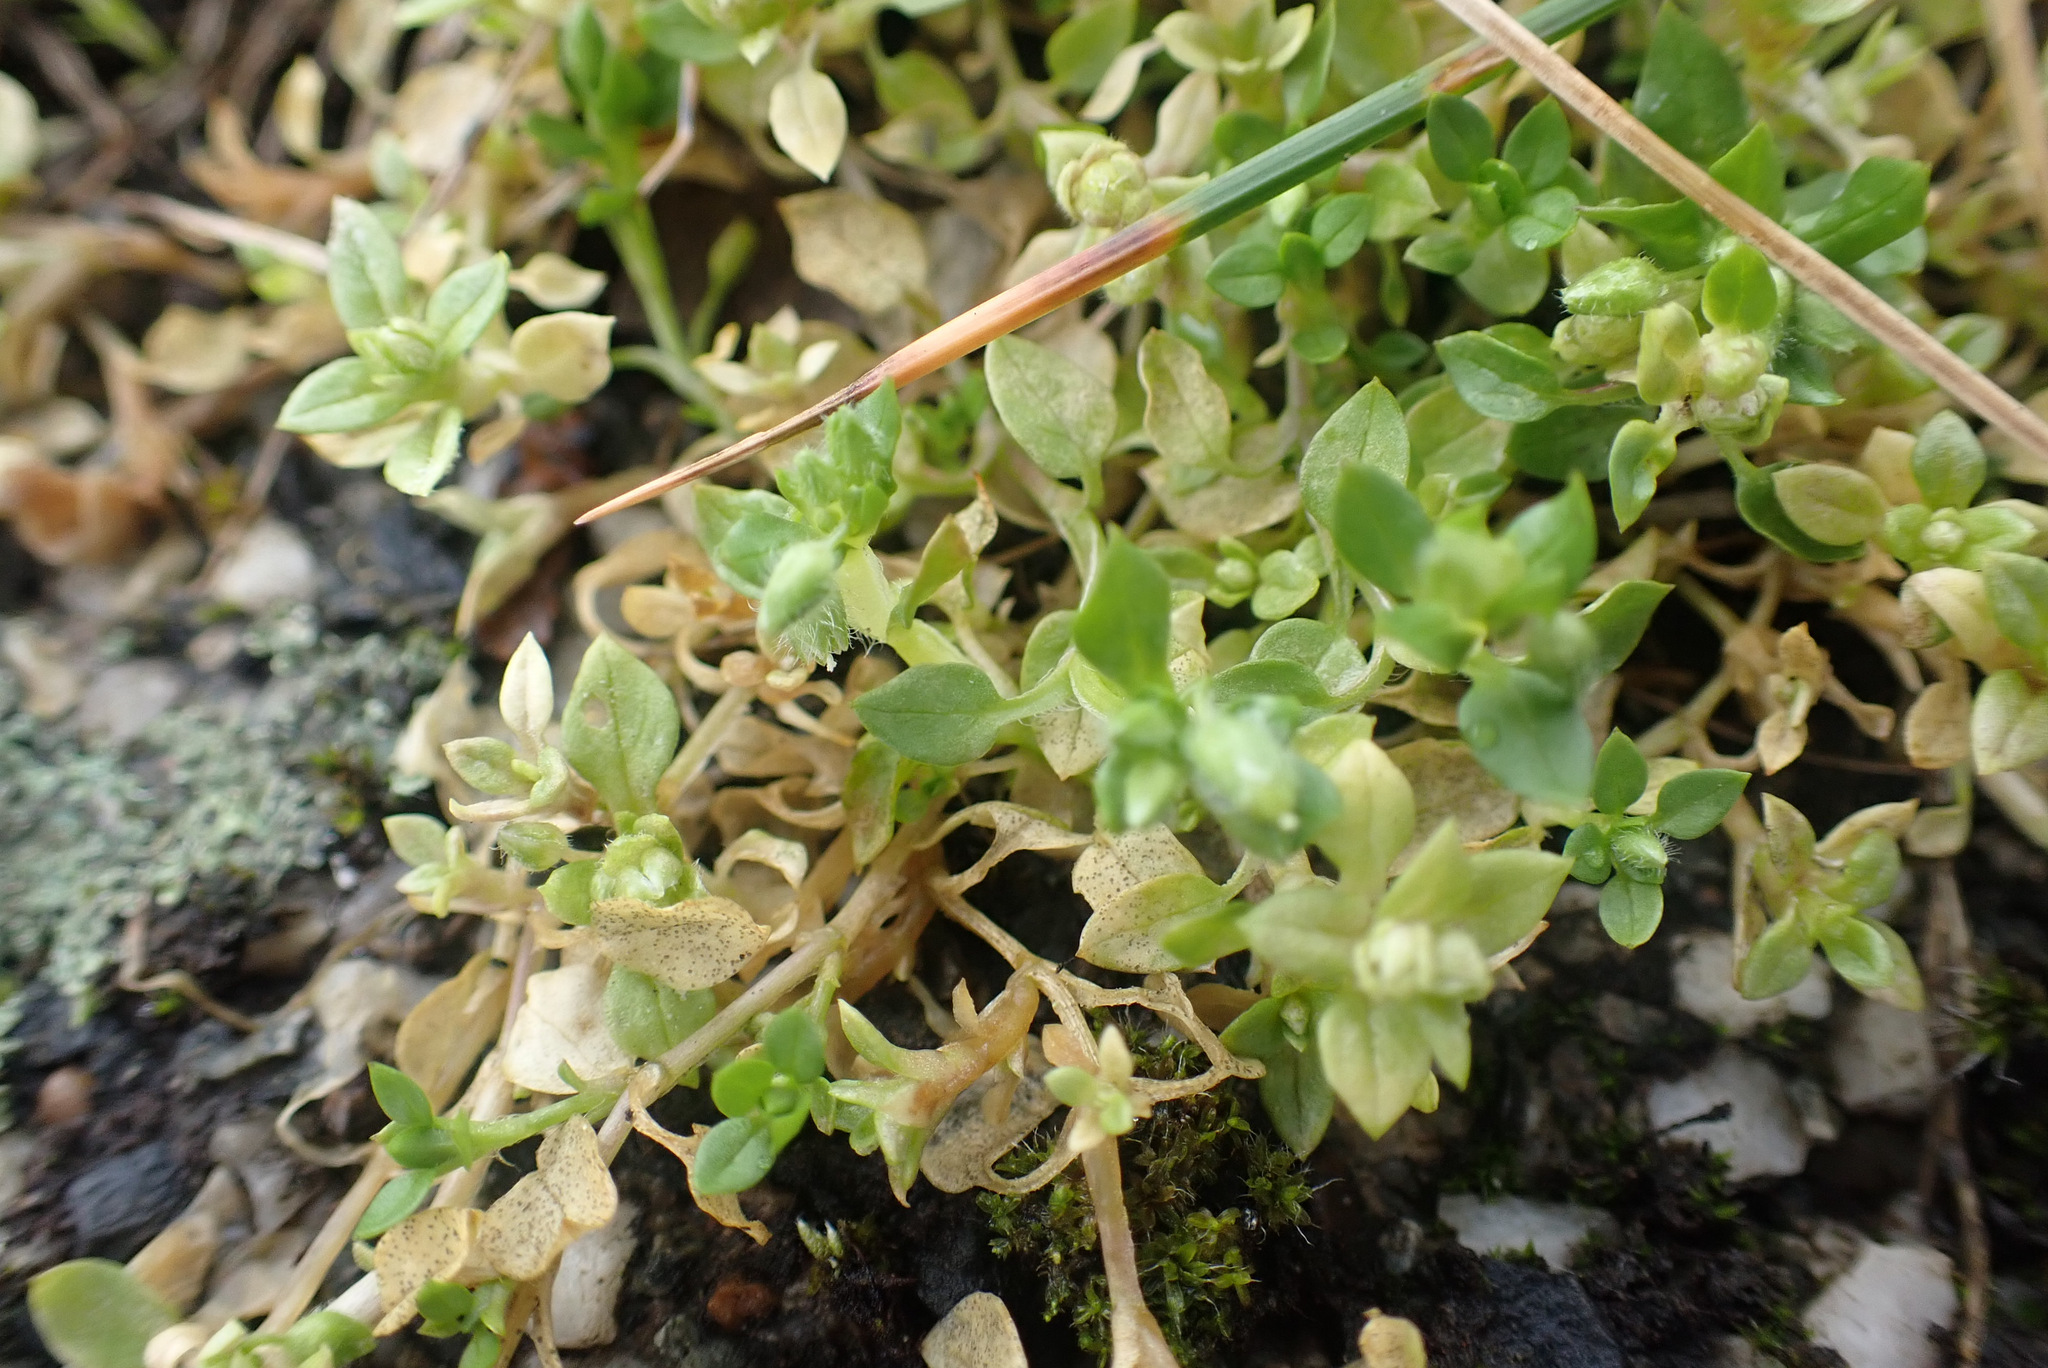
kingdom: Plantae
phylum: Tracheophyta
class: Magnoliopsida
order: Caryophyllales
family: Caryophyllaceae
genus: Stellaria
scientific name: Stellaria apetala
